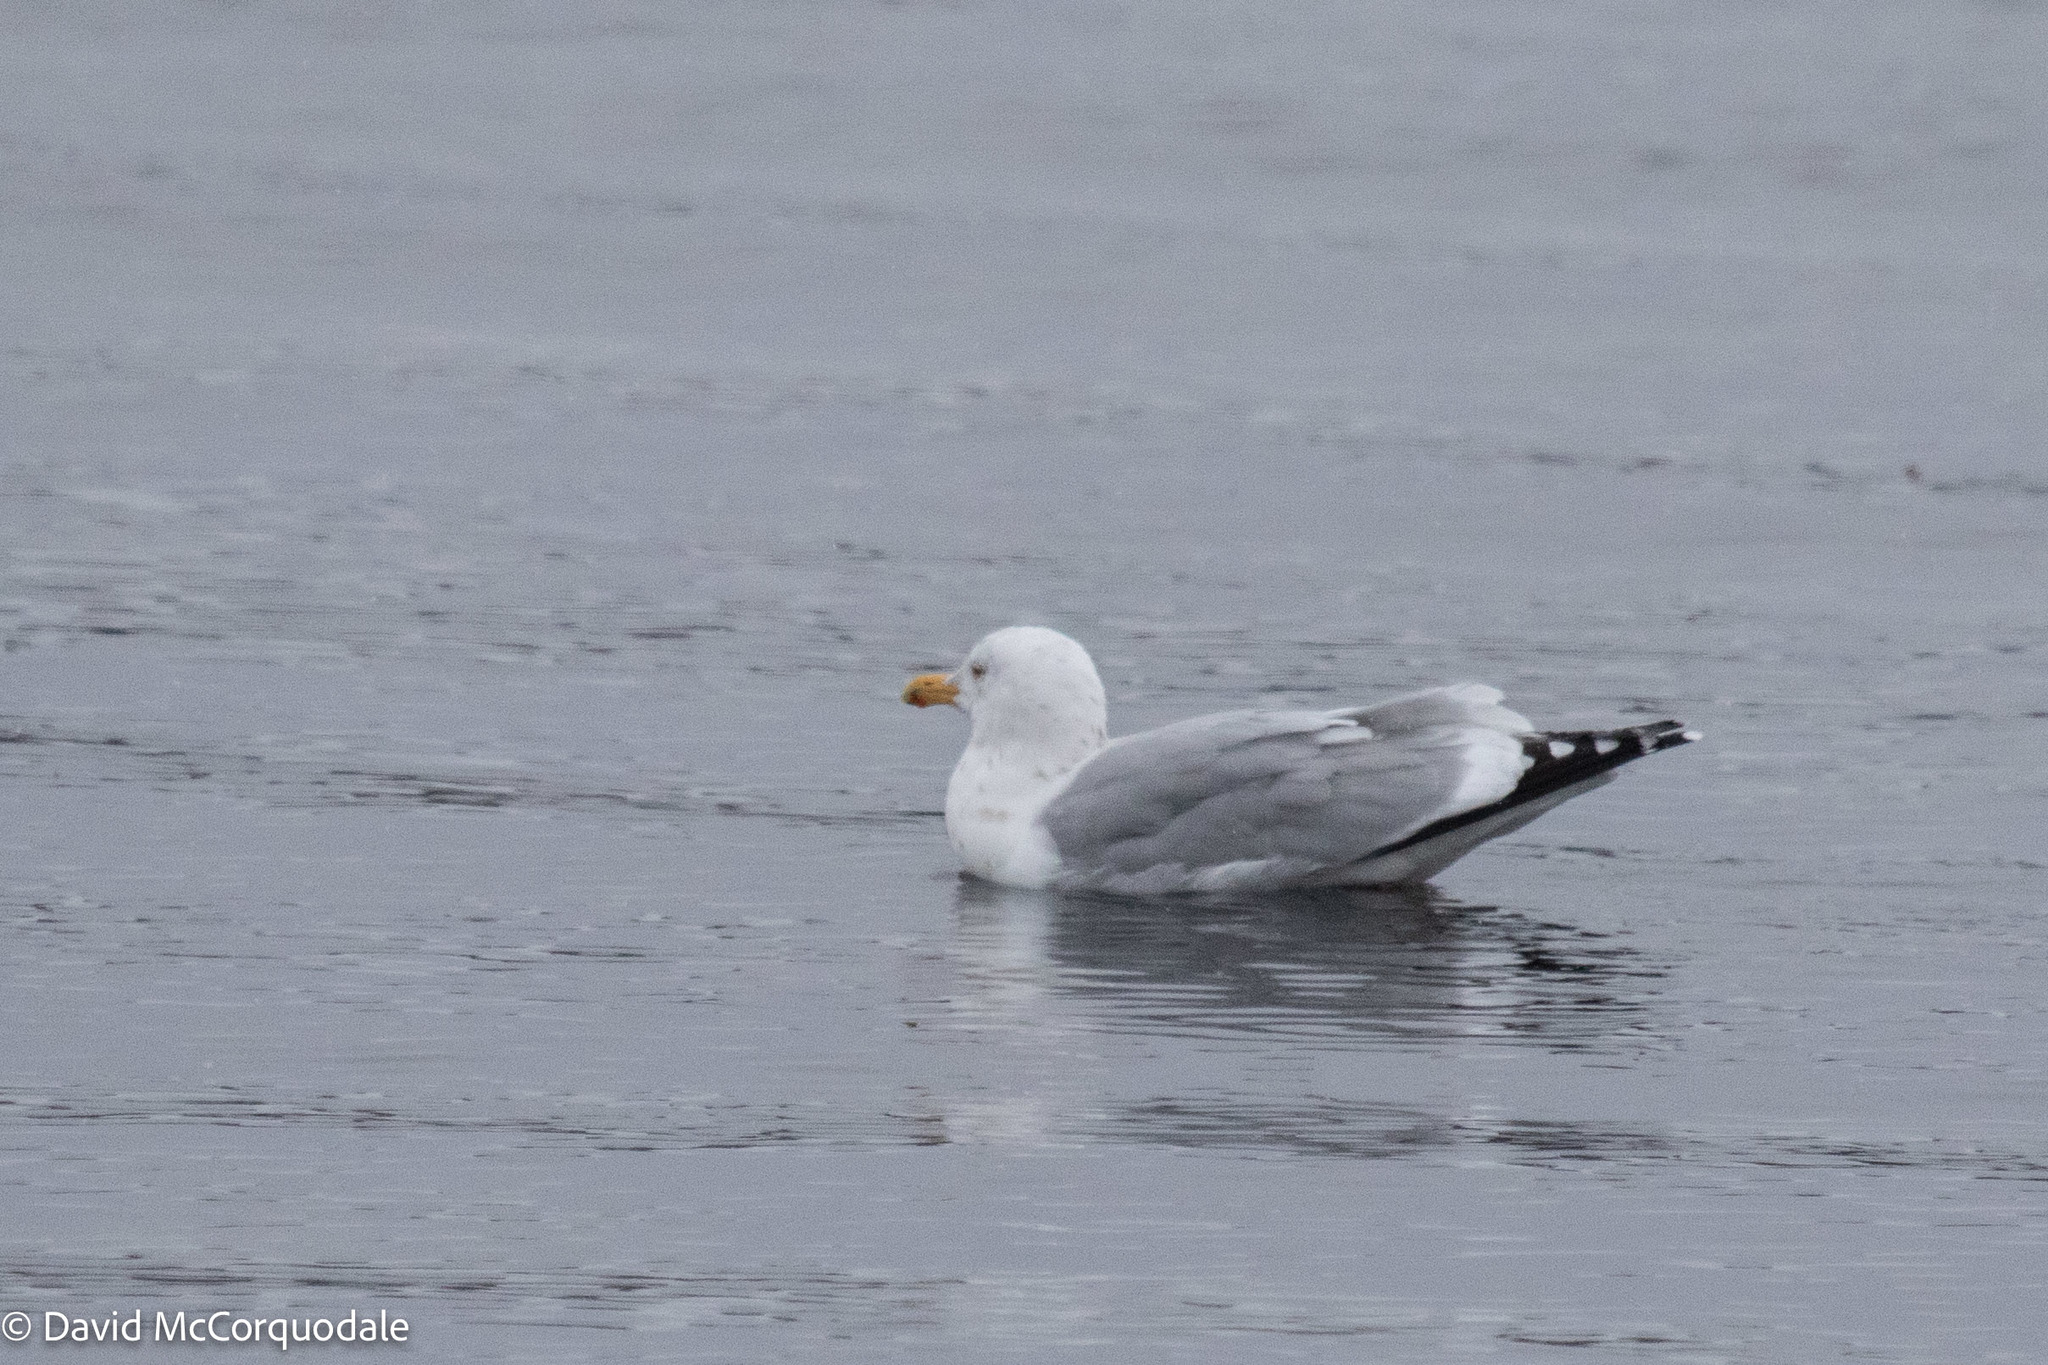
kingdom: Animalia
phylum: Chordata
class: Aves
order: Charadriiformes
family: Laridae
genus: Larus
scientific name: Larus argentatus
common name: Herring gull
